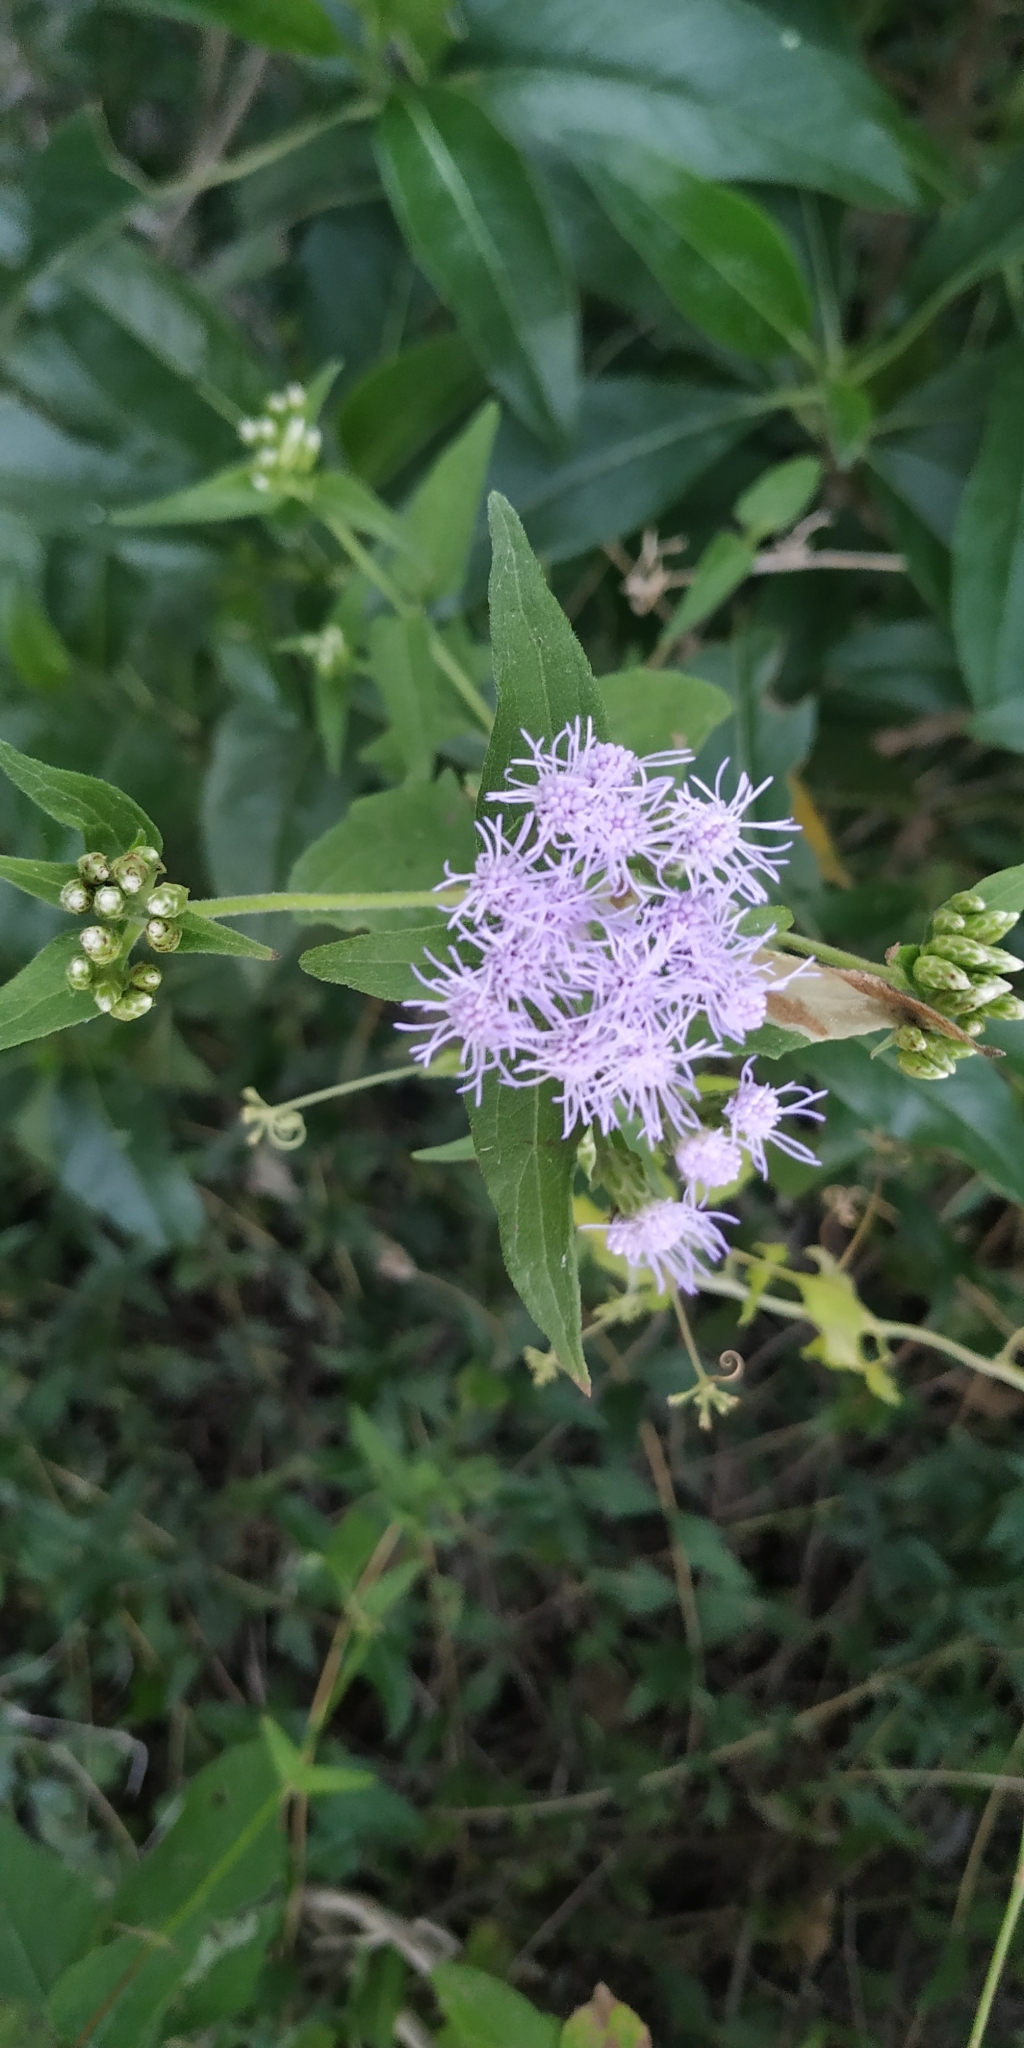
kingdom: Plantae
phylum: Tracheophyta
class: Magnoliopsida
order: Asterales
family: Asteraceae
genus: Chromolaena
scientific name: Chromolaena odorata
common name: Siamweed
